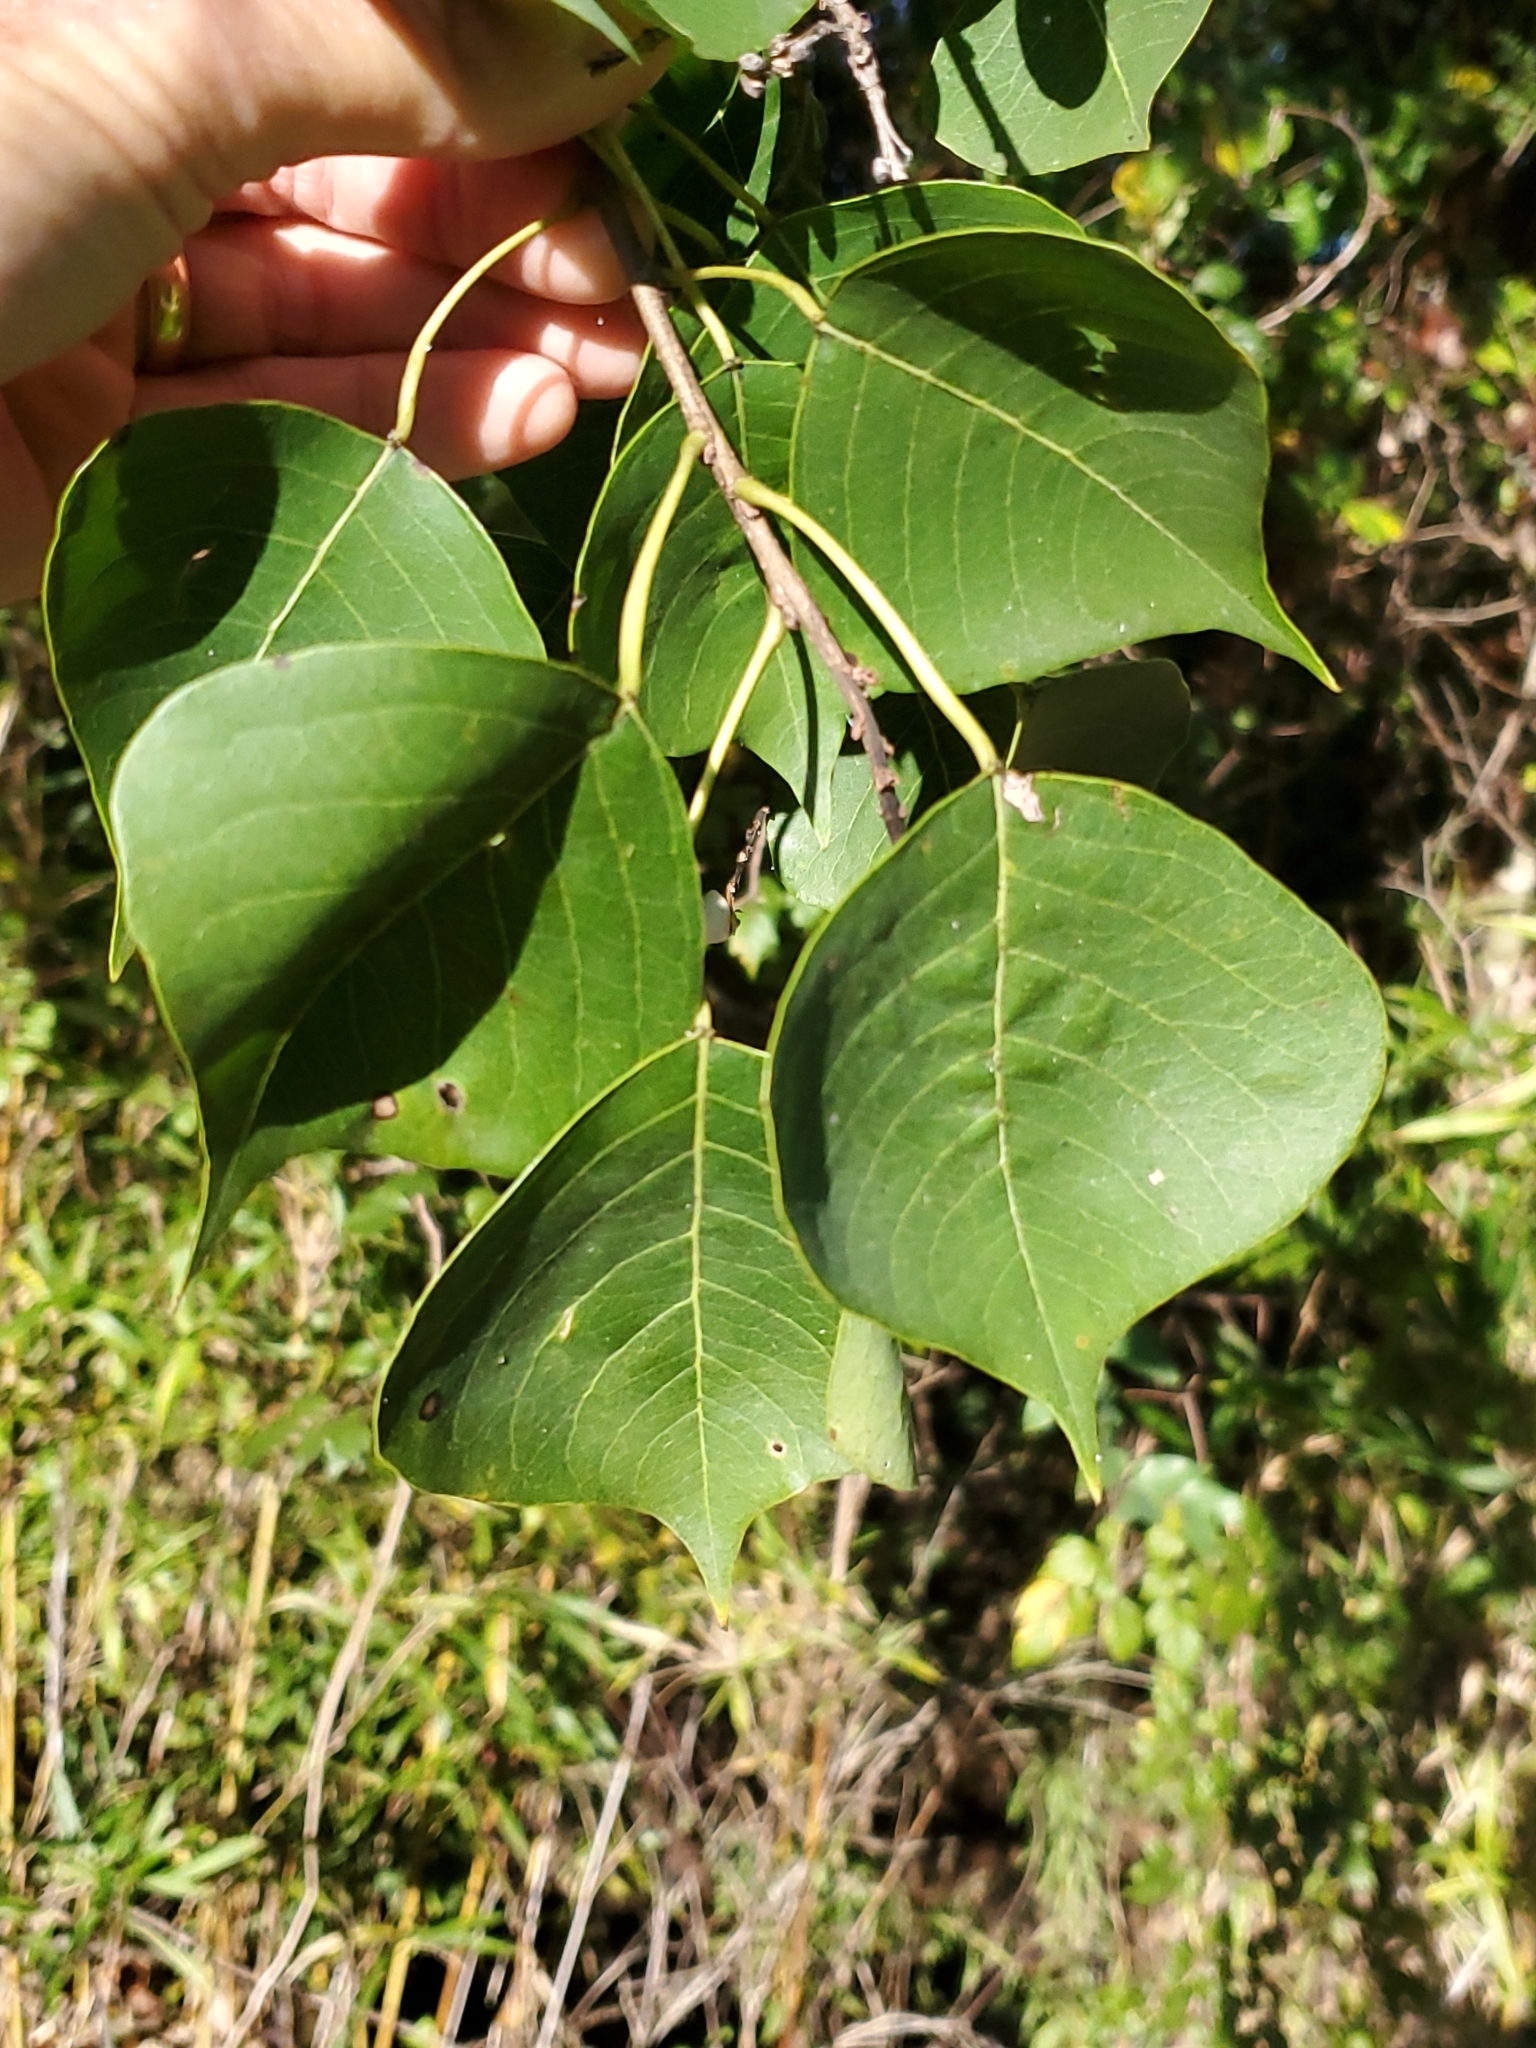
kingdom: Plantae
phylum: Tracheophyta
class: Magnoliopsida
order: Malpighiales
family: Euphorbiaceae
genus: Triadica
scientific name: Triadica sebifera
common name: Chinese tallow
